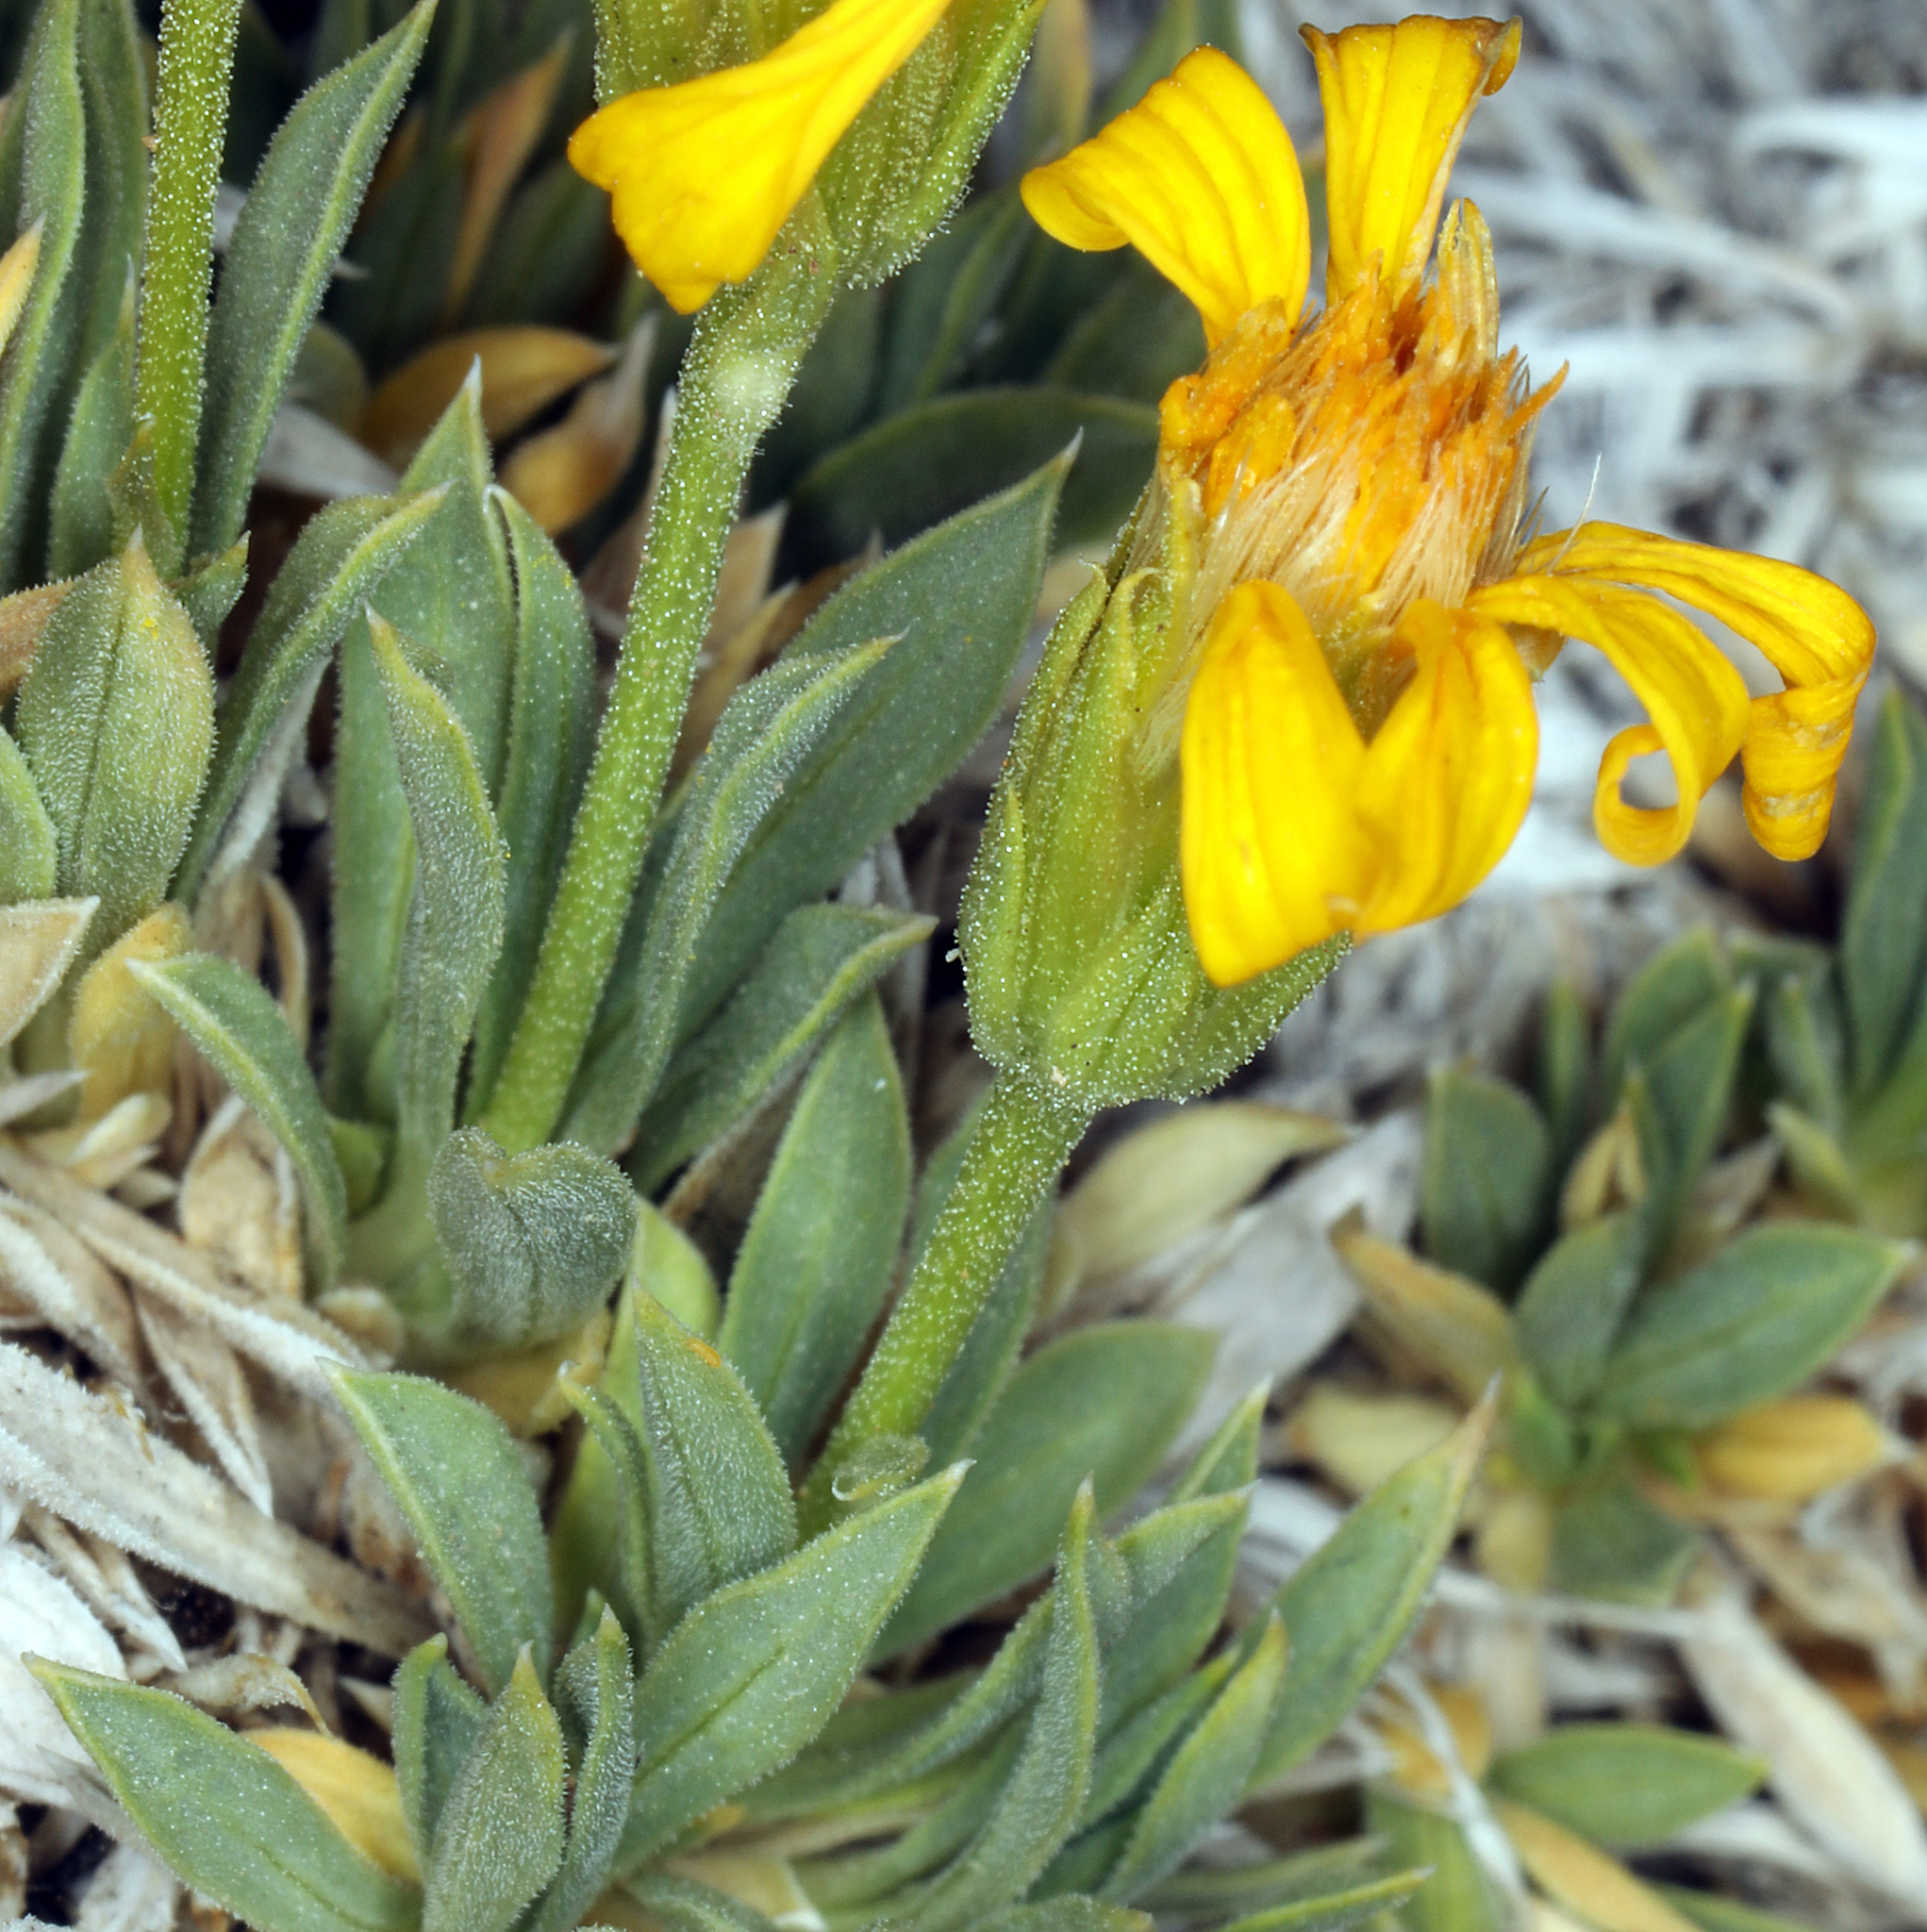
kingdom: Plantae
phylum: Tracheophyta
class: Magnoliopsida
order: Asterales
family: Asteraceae
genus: Stenotus
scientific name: Stenotus acaulis
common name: Stemless goldenweed
